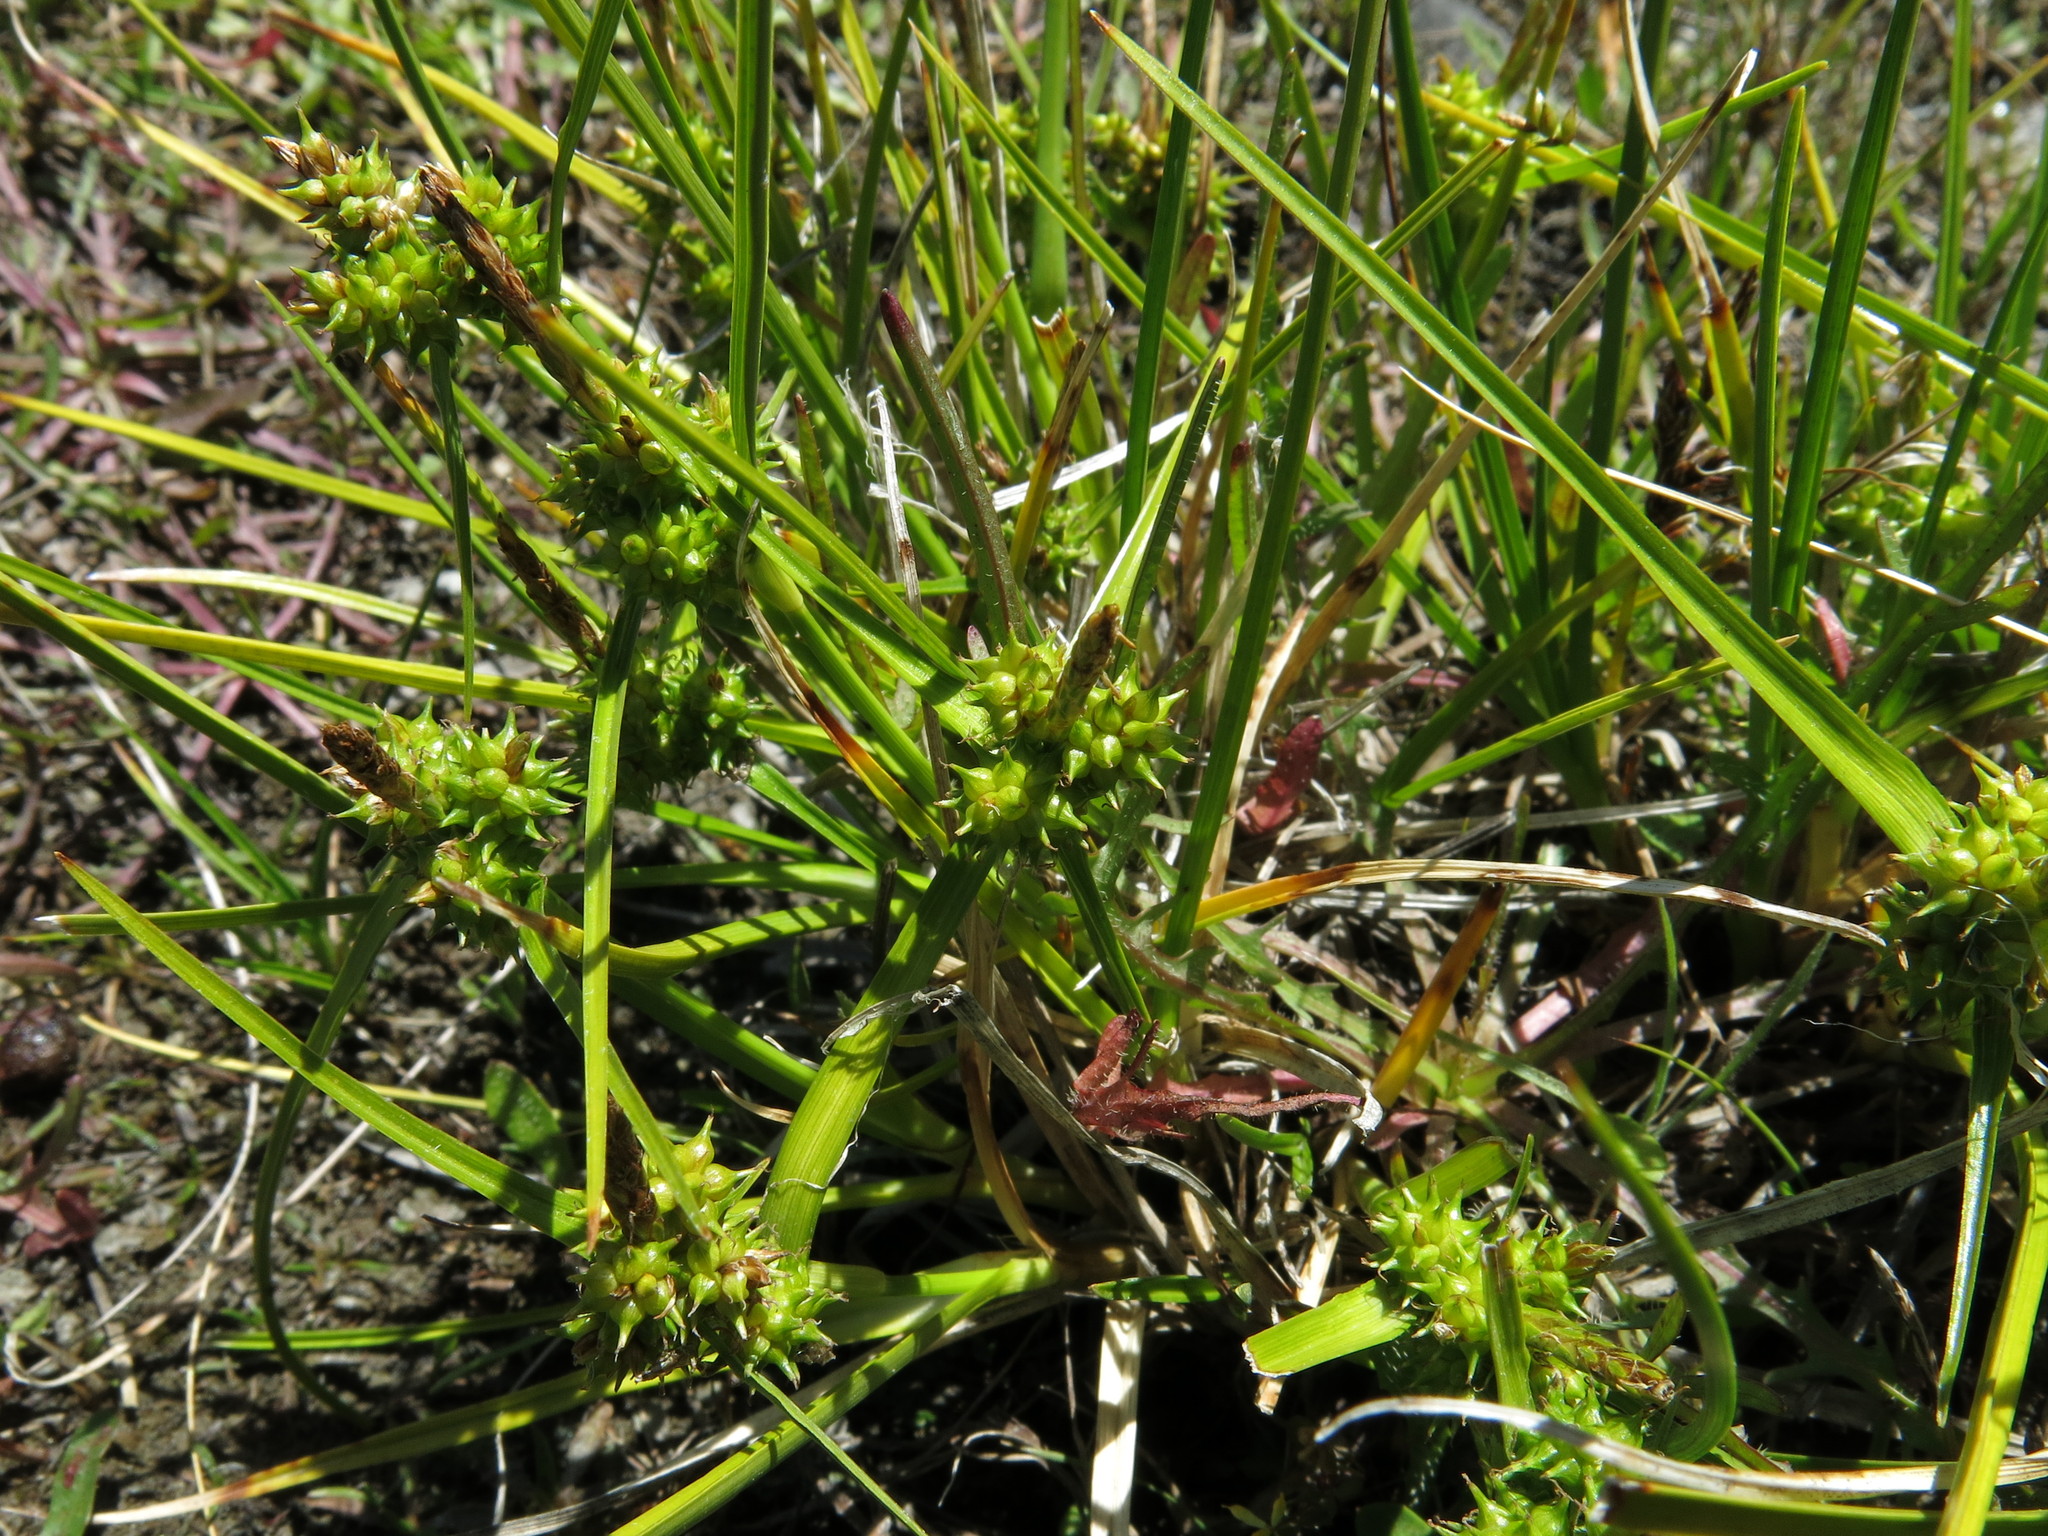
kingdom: Plantae
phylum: Tracheophyta
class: Liliopsida
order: Poales
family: Cyperaceae
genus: Carex
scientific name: Carex flaviformis
